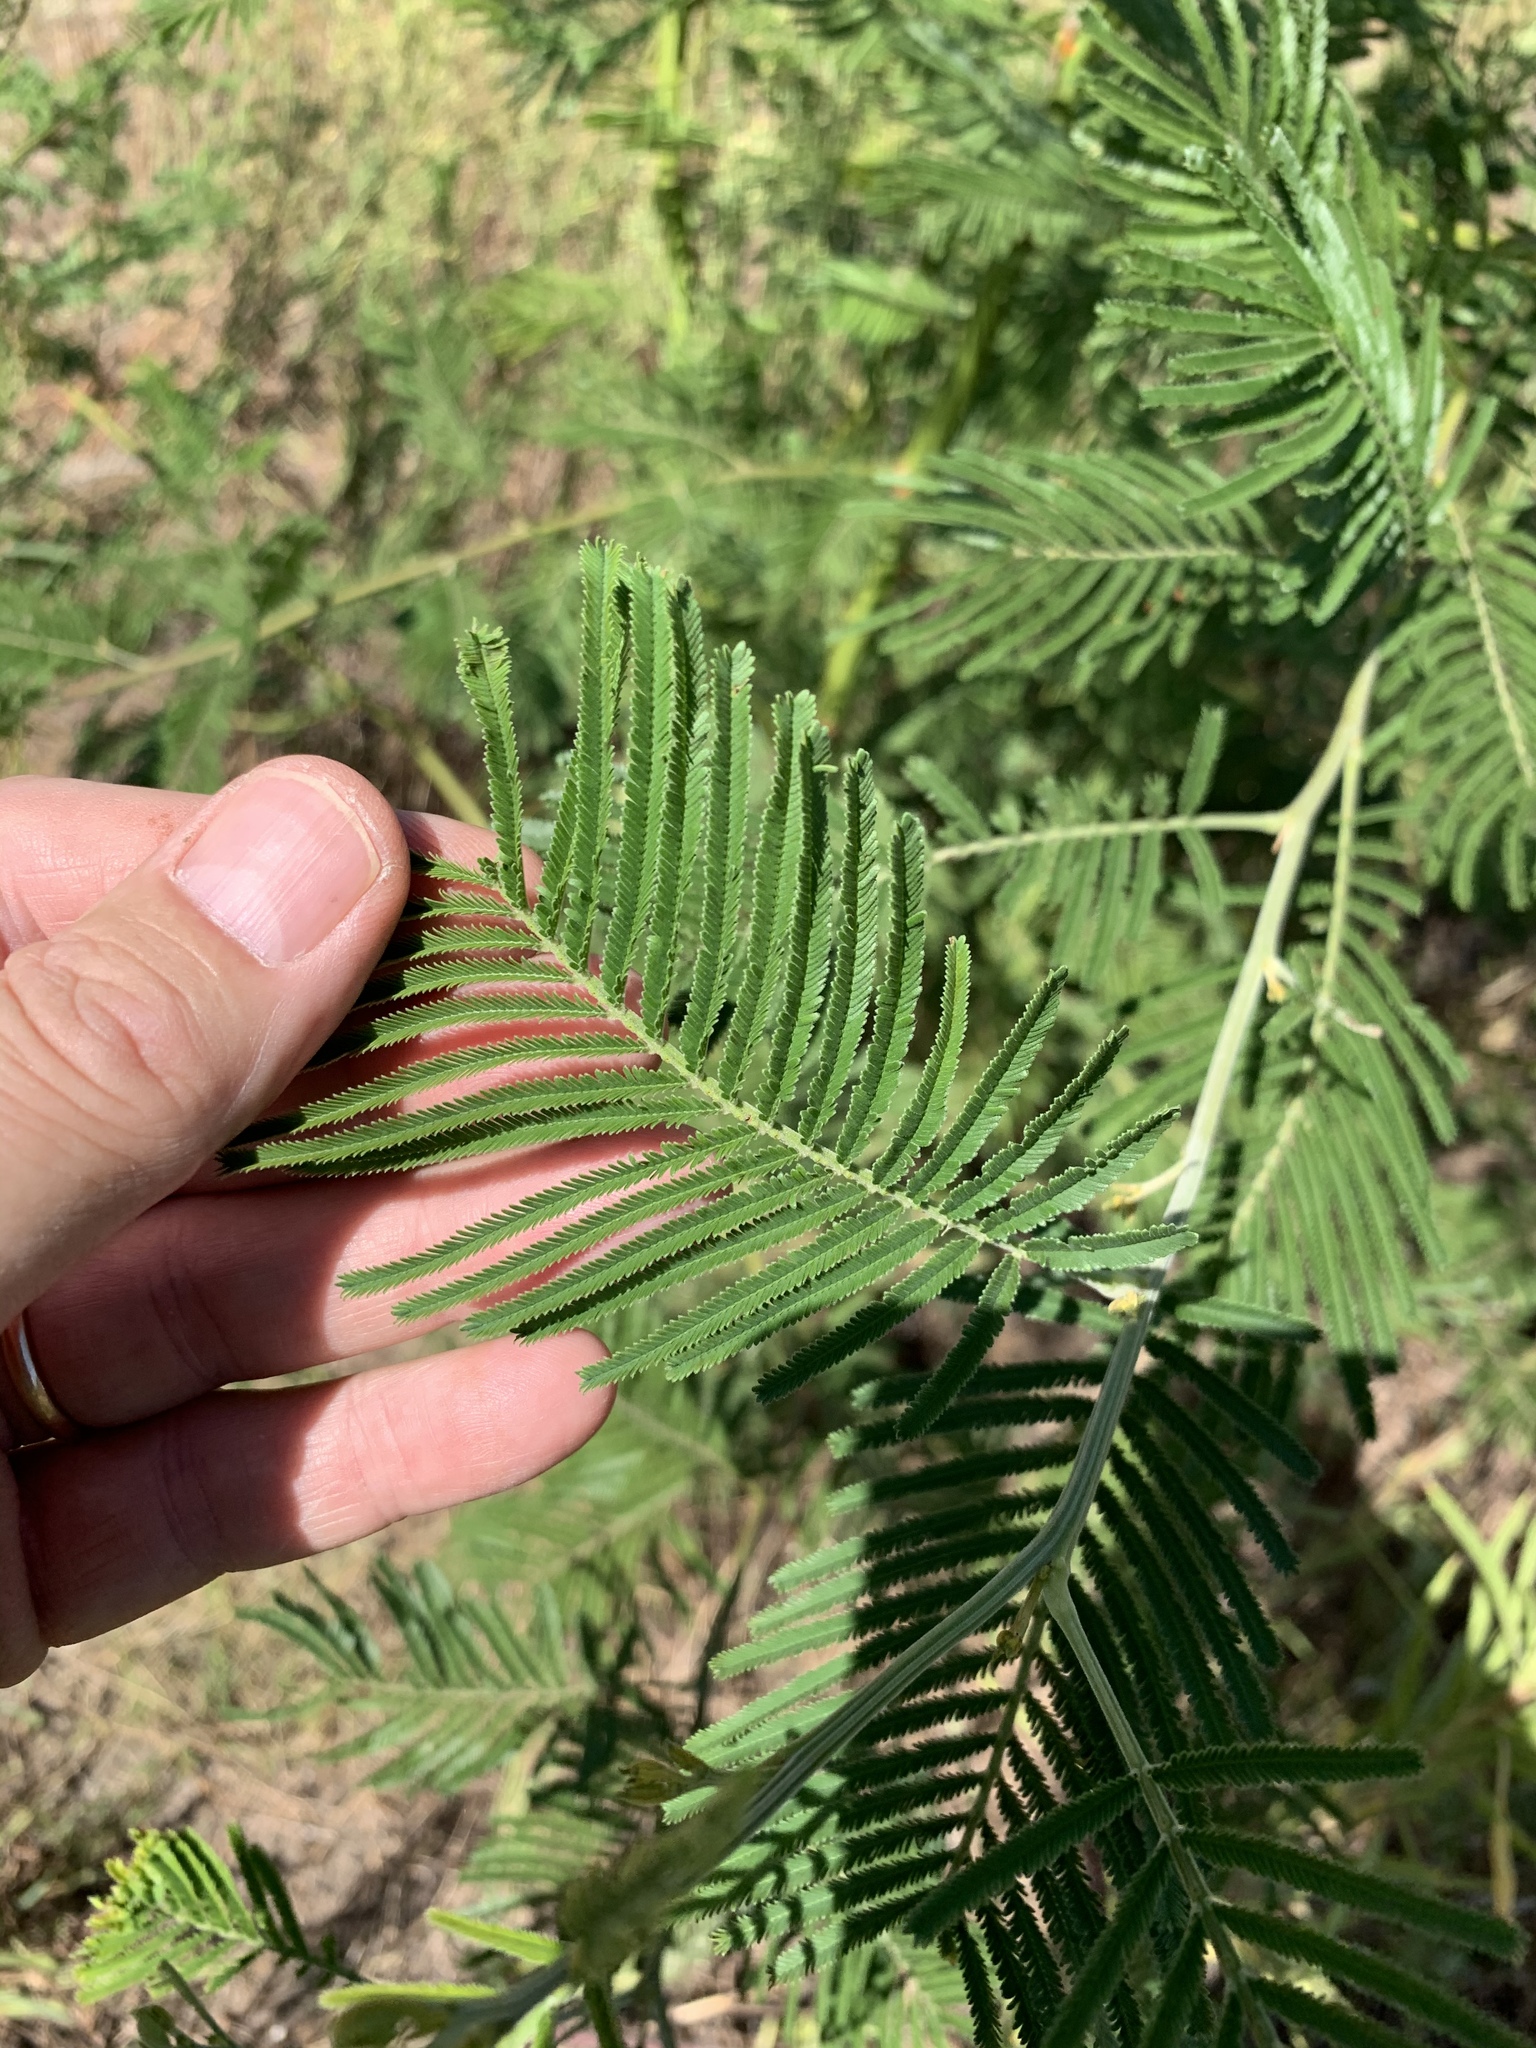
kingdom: Plantae
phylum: Tracheophyta
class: Magnoliopsida
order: Fabales
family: Fabaceae
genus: Acacia
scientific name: Acacia mearnsii
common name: Black wattle
